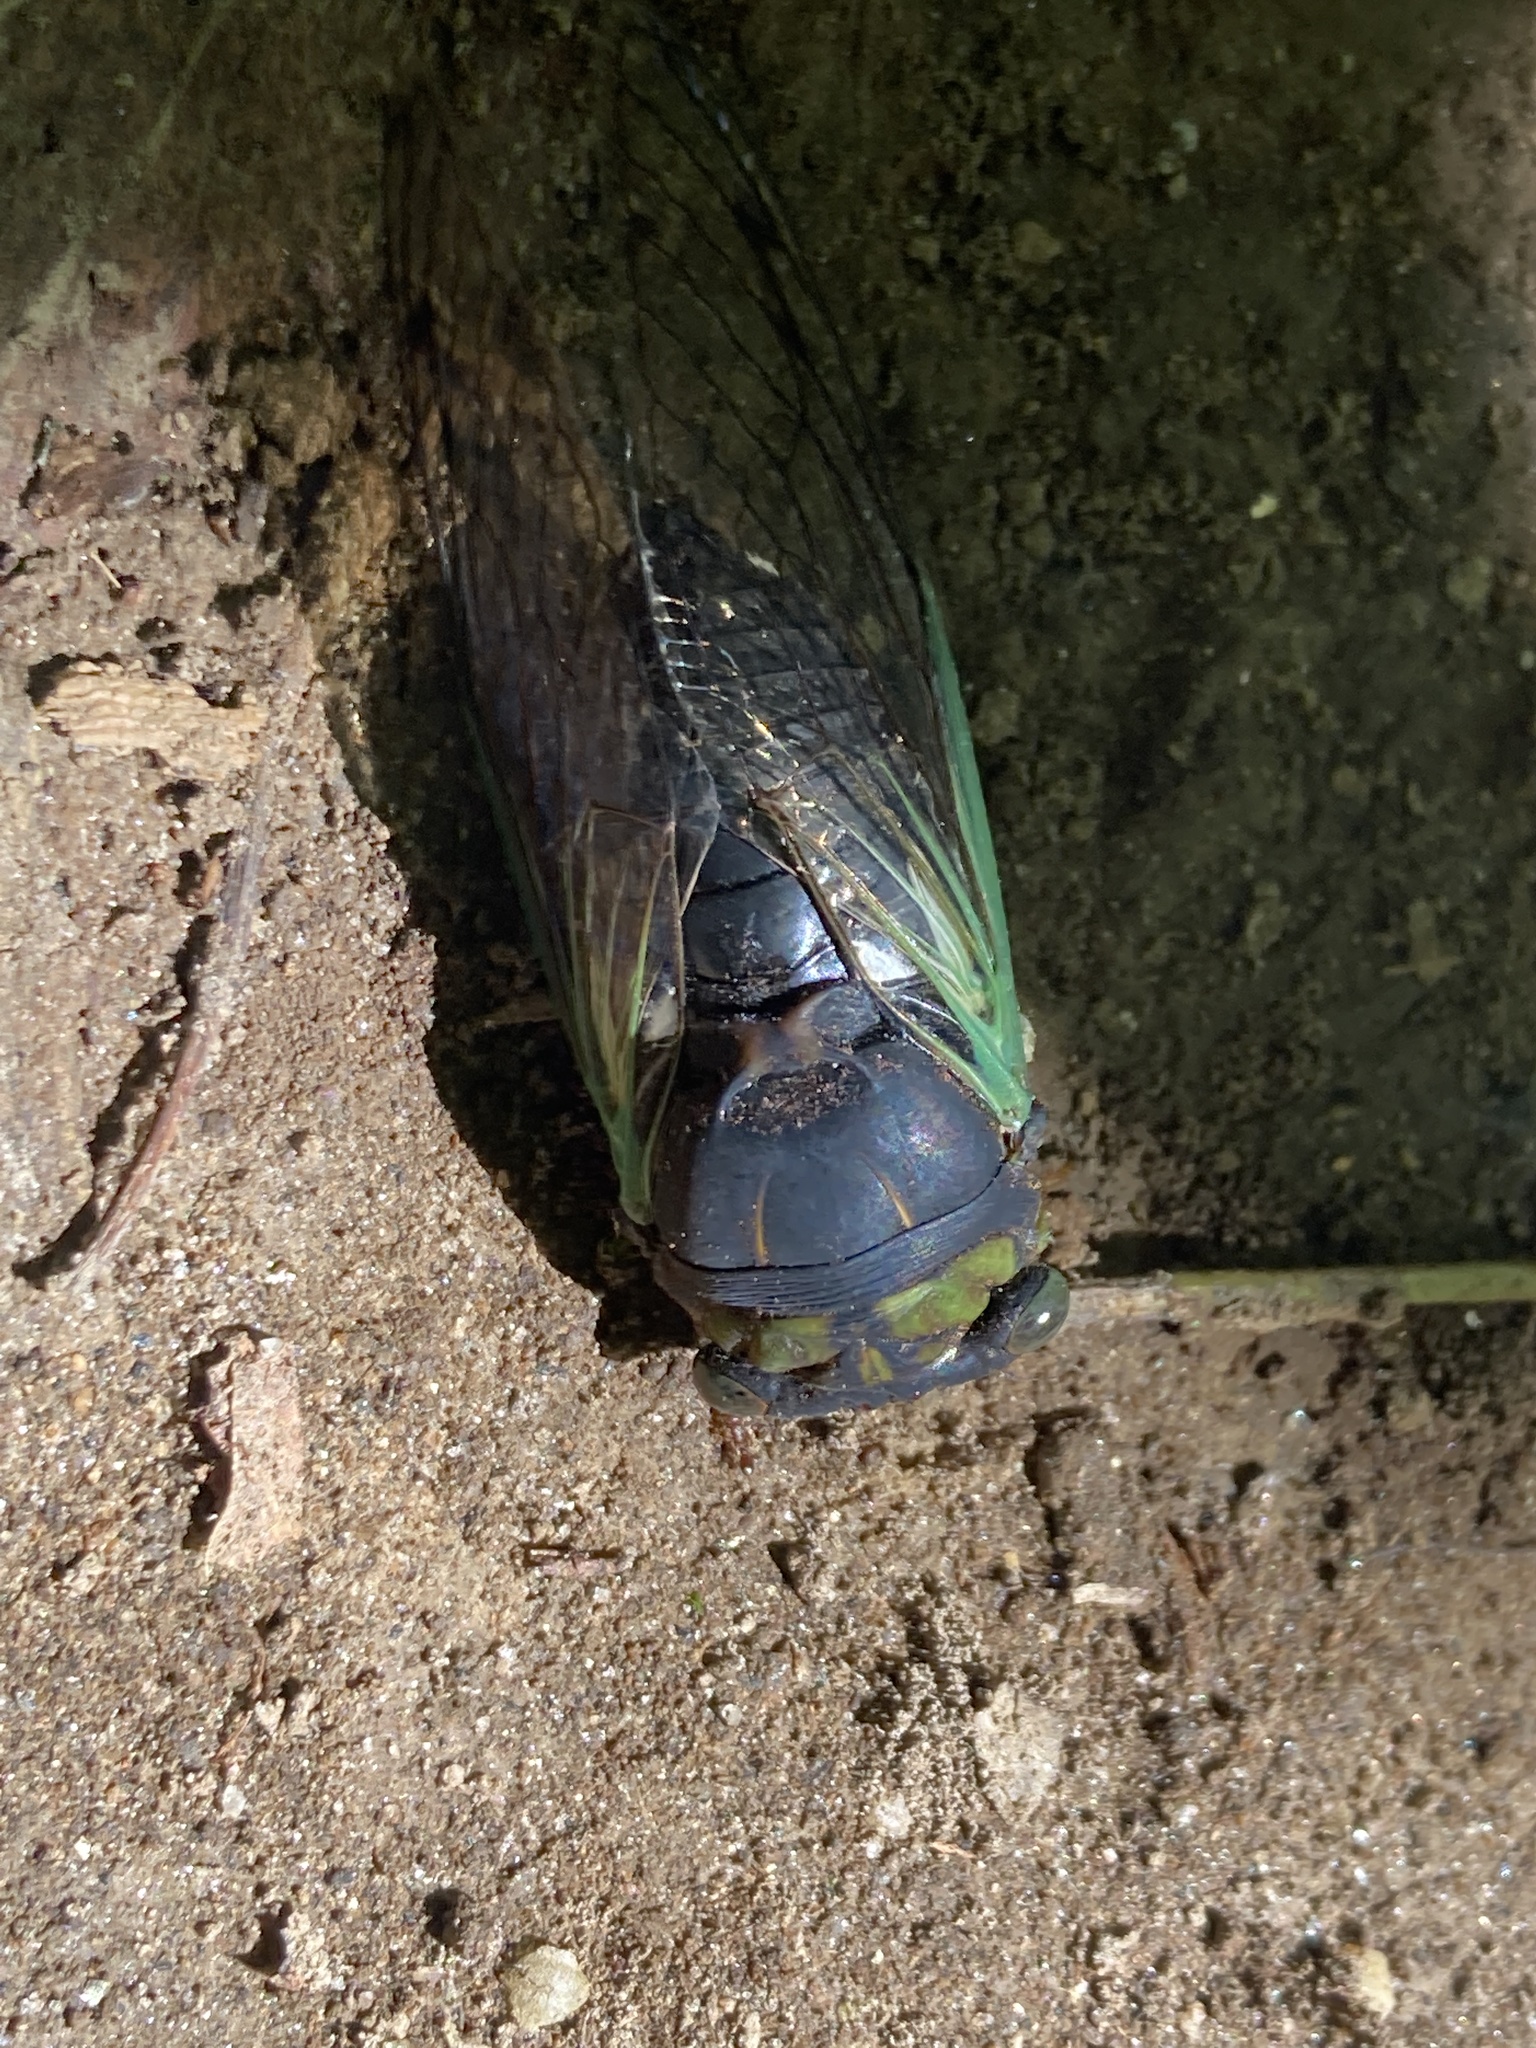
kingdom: Animalia
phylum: Arthropoda
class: Insecta
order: Hemiptera
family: Cicadidae
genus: Neotibicen
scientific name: Neotibicen tibicen
